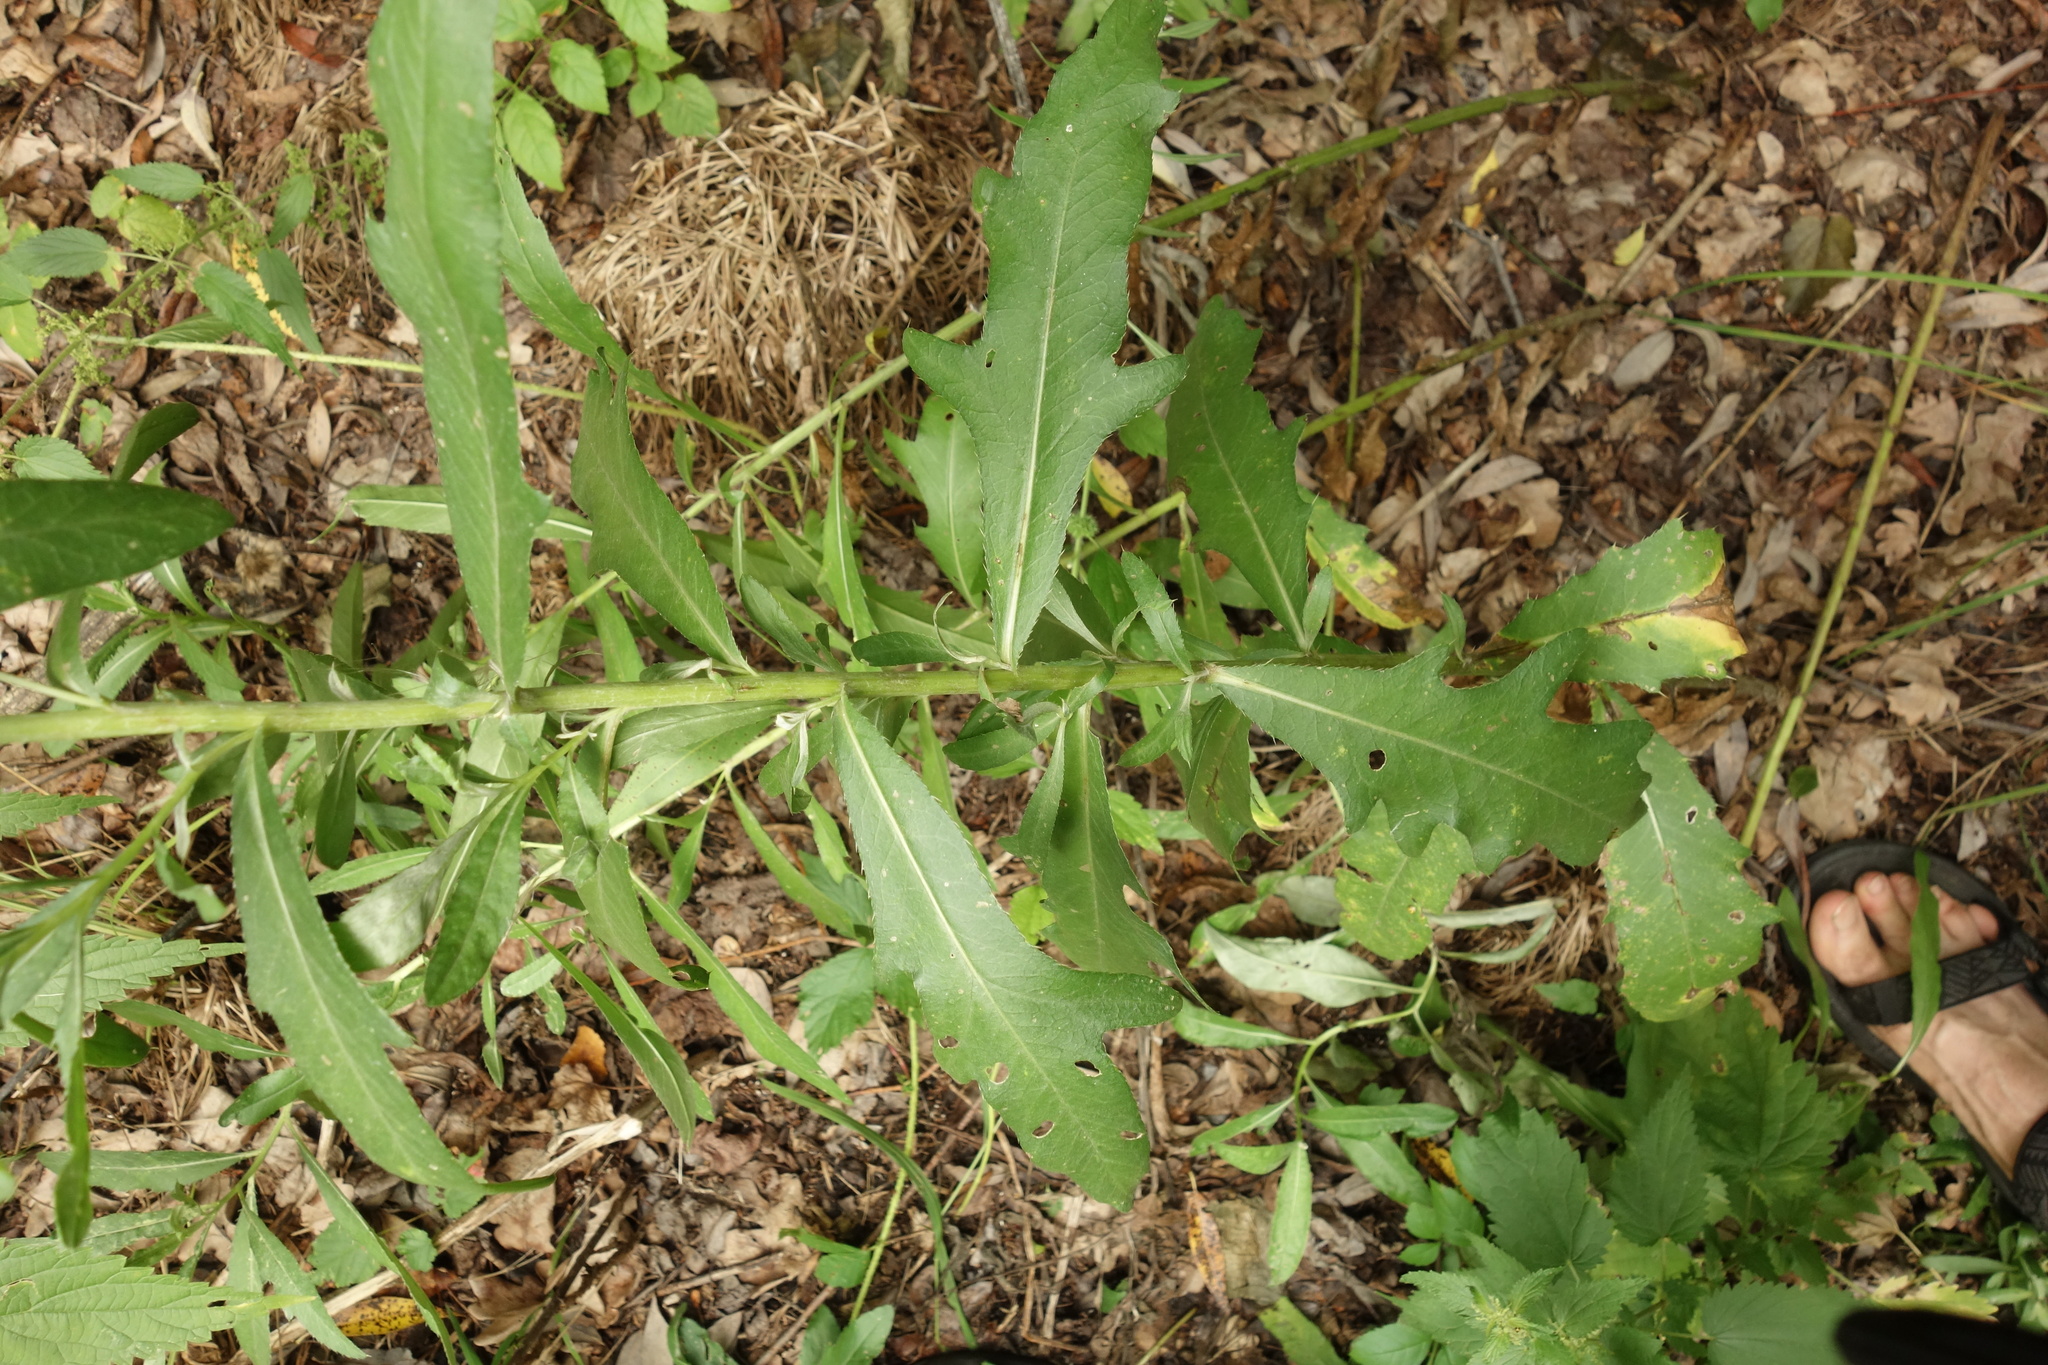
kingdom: Plantae
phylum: Tracheophyta
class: Magnoliopsida
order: Asterales
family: Asteraceae
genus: Cirsium
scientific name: Cirsium arvense
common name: Creeping thistle
